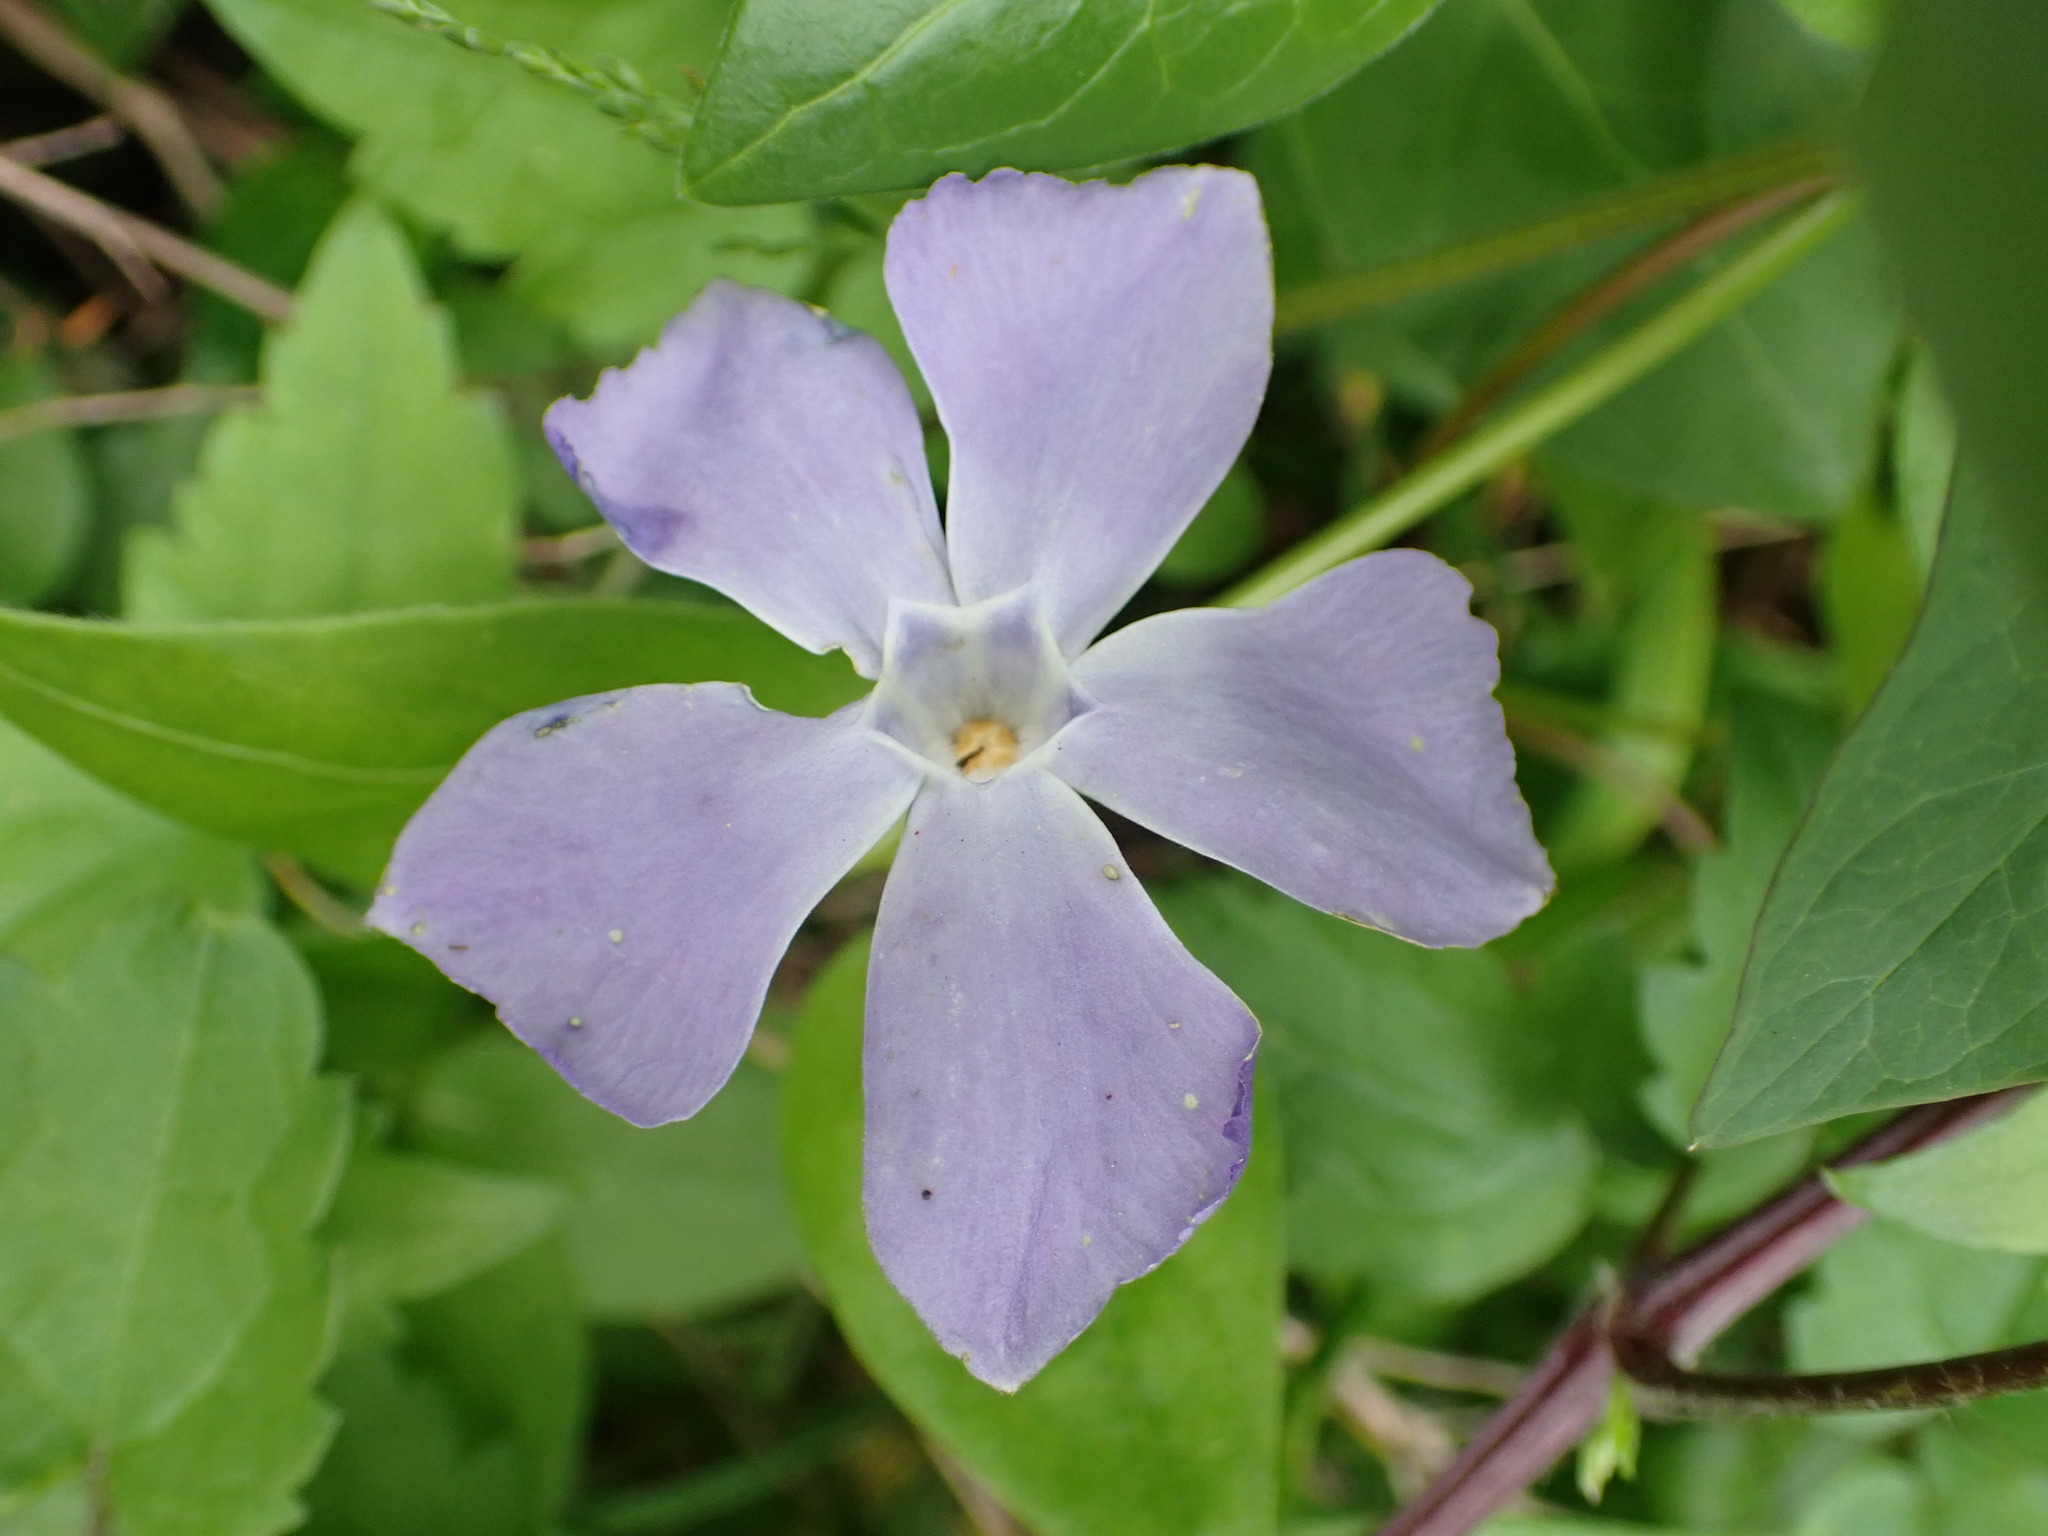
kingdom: Plantae
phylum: Tracheophyta
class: Magnoliopsida
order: Gentianales
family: Apocynaceae
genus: Vinca
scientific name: Vinca major
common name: Greater periwinkle
